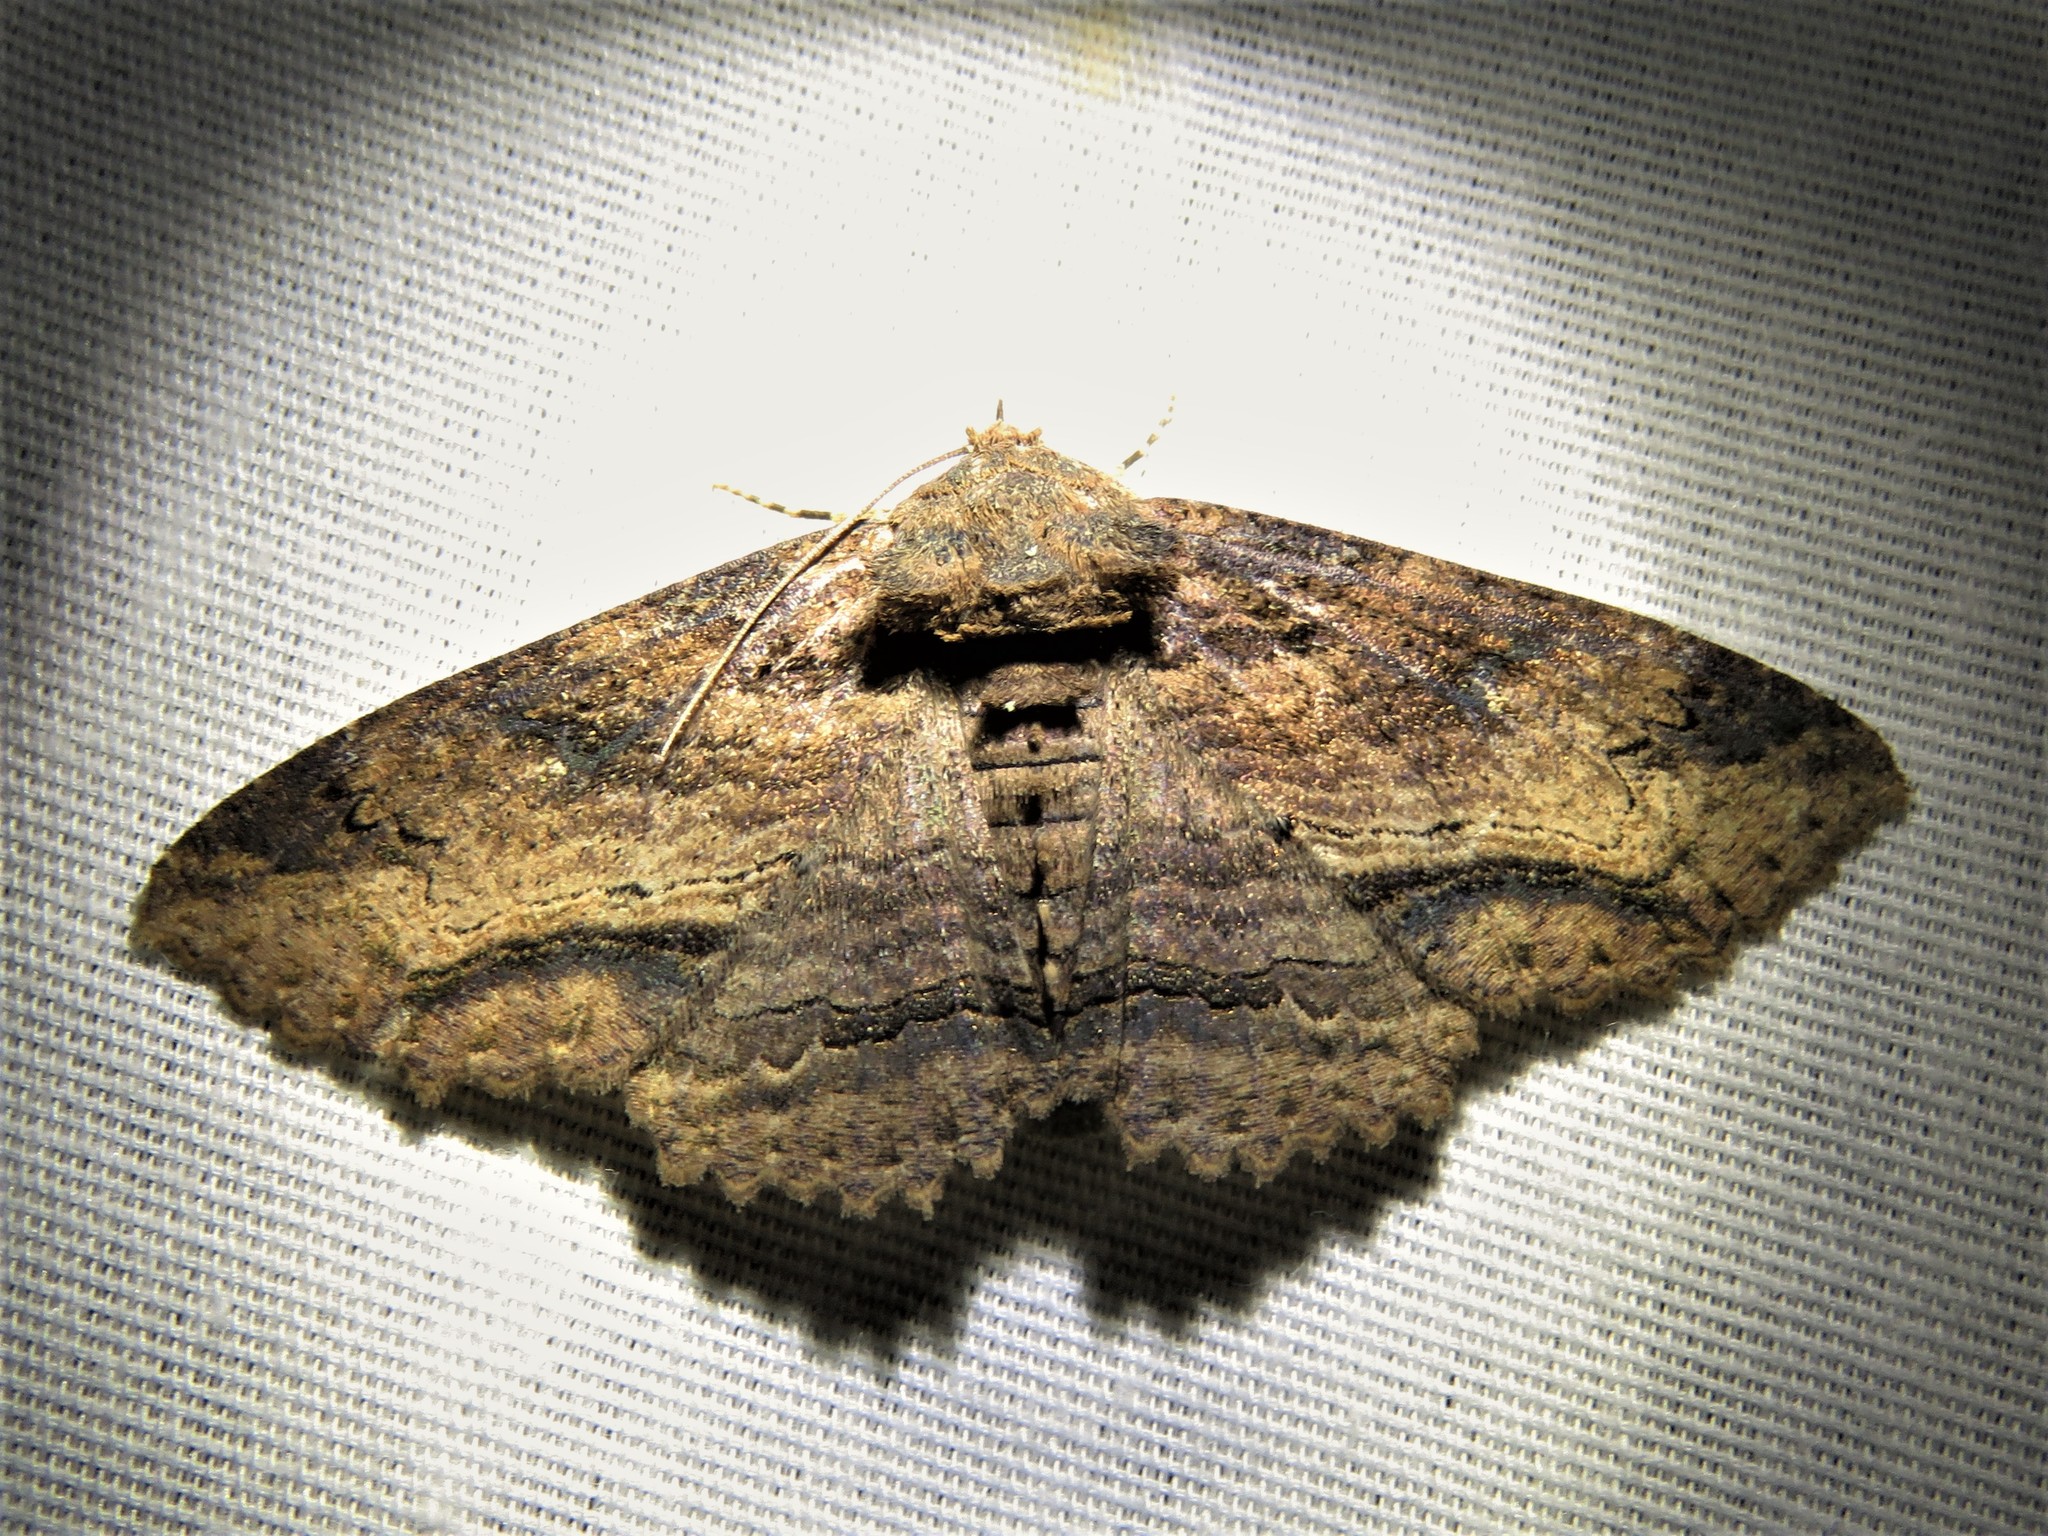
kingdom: Animalia
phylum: Arthropoda
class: Insecta
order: Lepidoptera
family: Erebidae
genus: Zale
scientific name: Zale lunata
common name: Lunate zale moth
